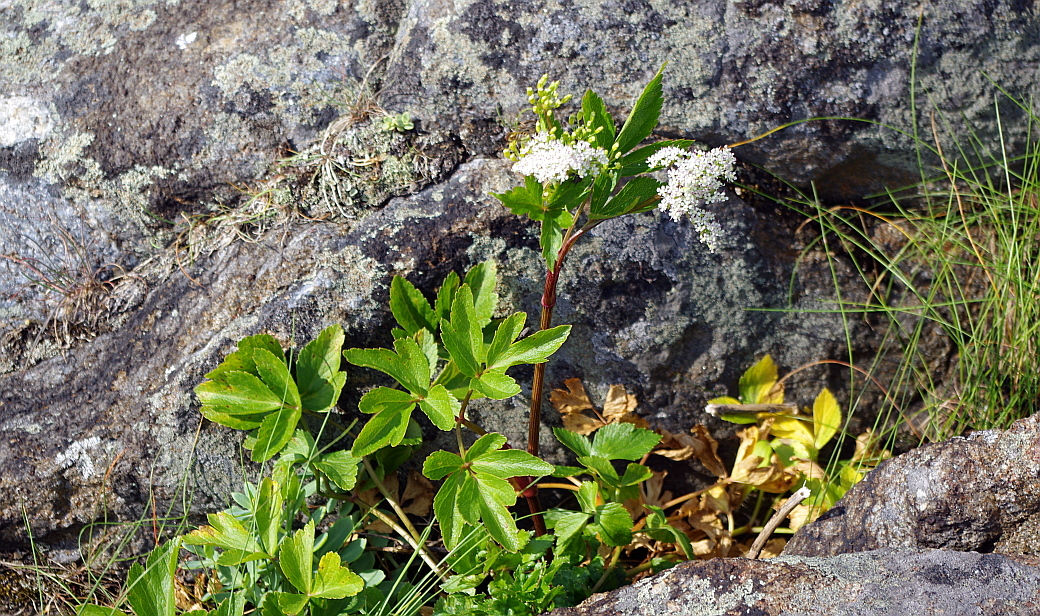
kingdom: Plantae
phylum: Tracheophyta
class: Magnoliopsida
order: Apiales
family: Apiaceae
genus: Ligusticum
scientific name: Ligusticum scothicum
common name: Beach lovage
